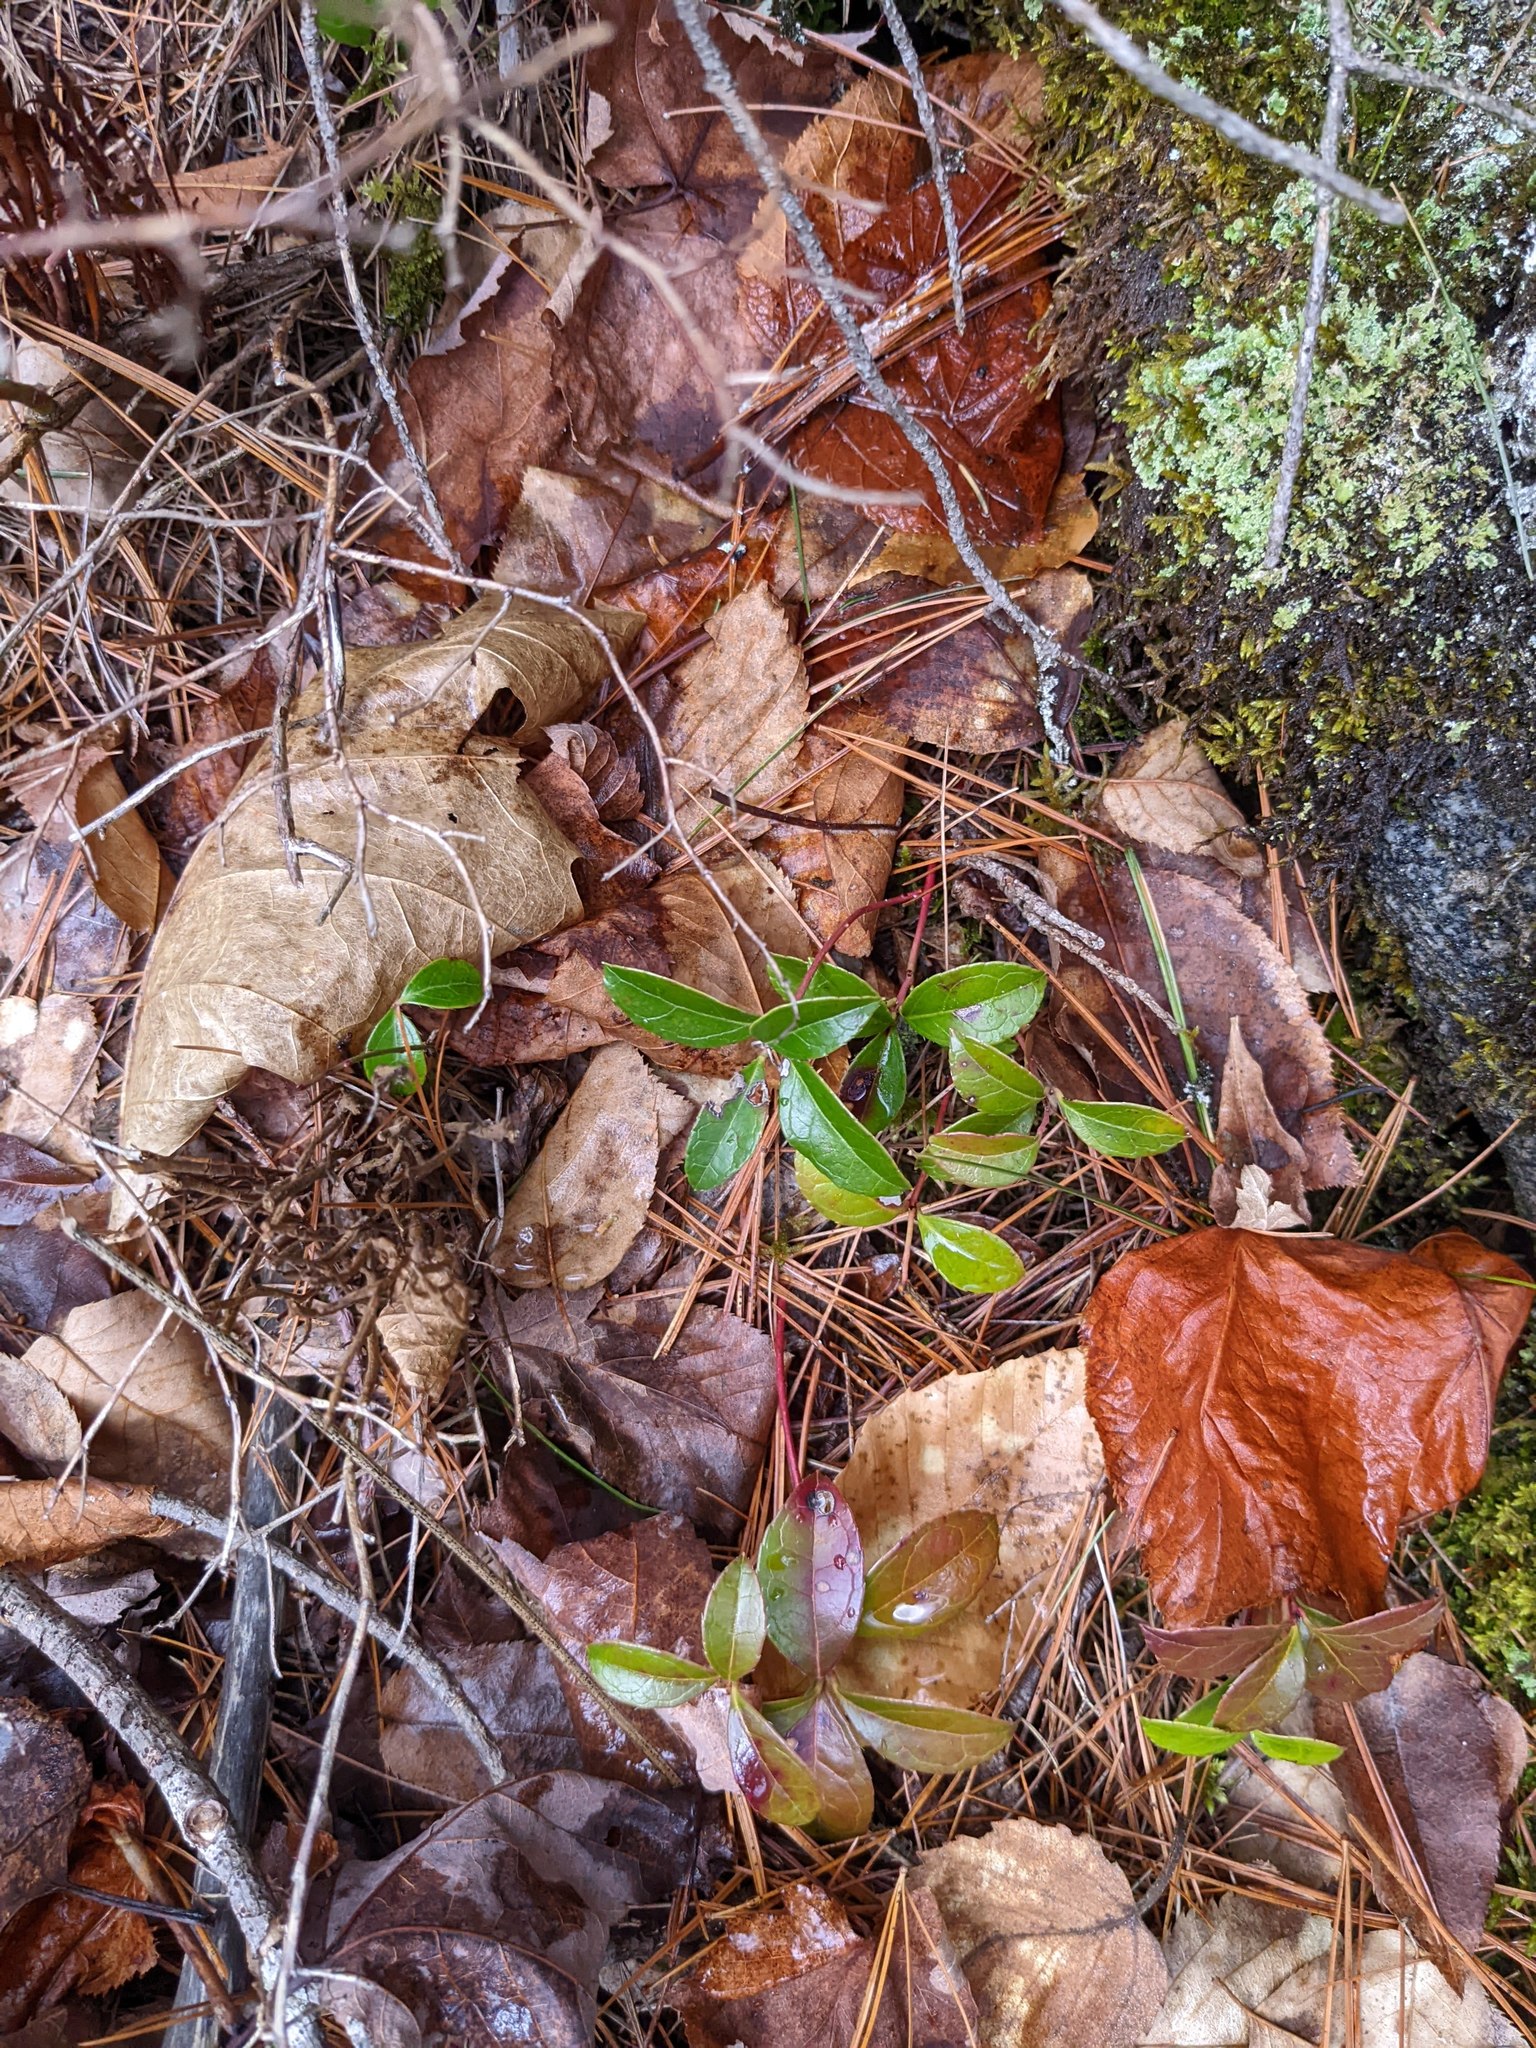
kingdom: Plantae
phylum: Tracheophyta
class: Magnoliopsida
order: Ericales
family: Ericaceae
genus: Gaultheria
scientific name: Gaultheria procumbens
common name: Checkerberry
